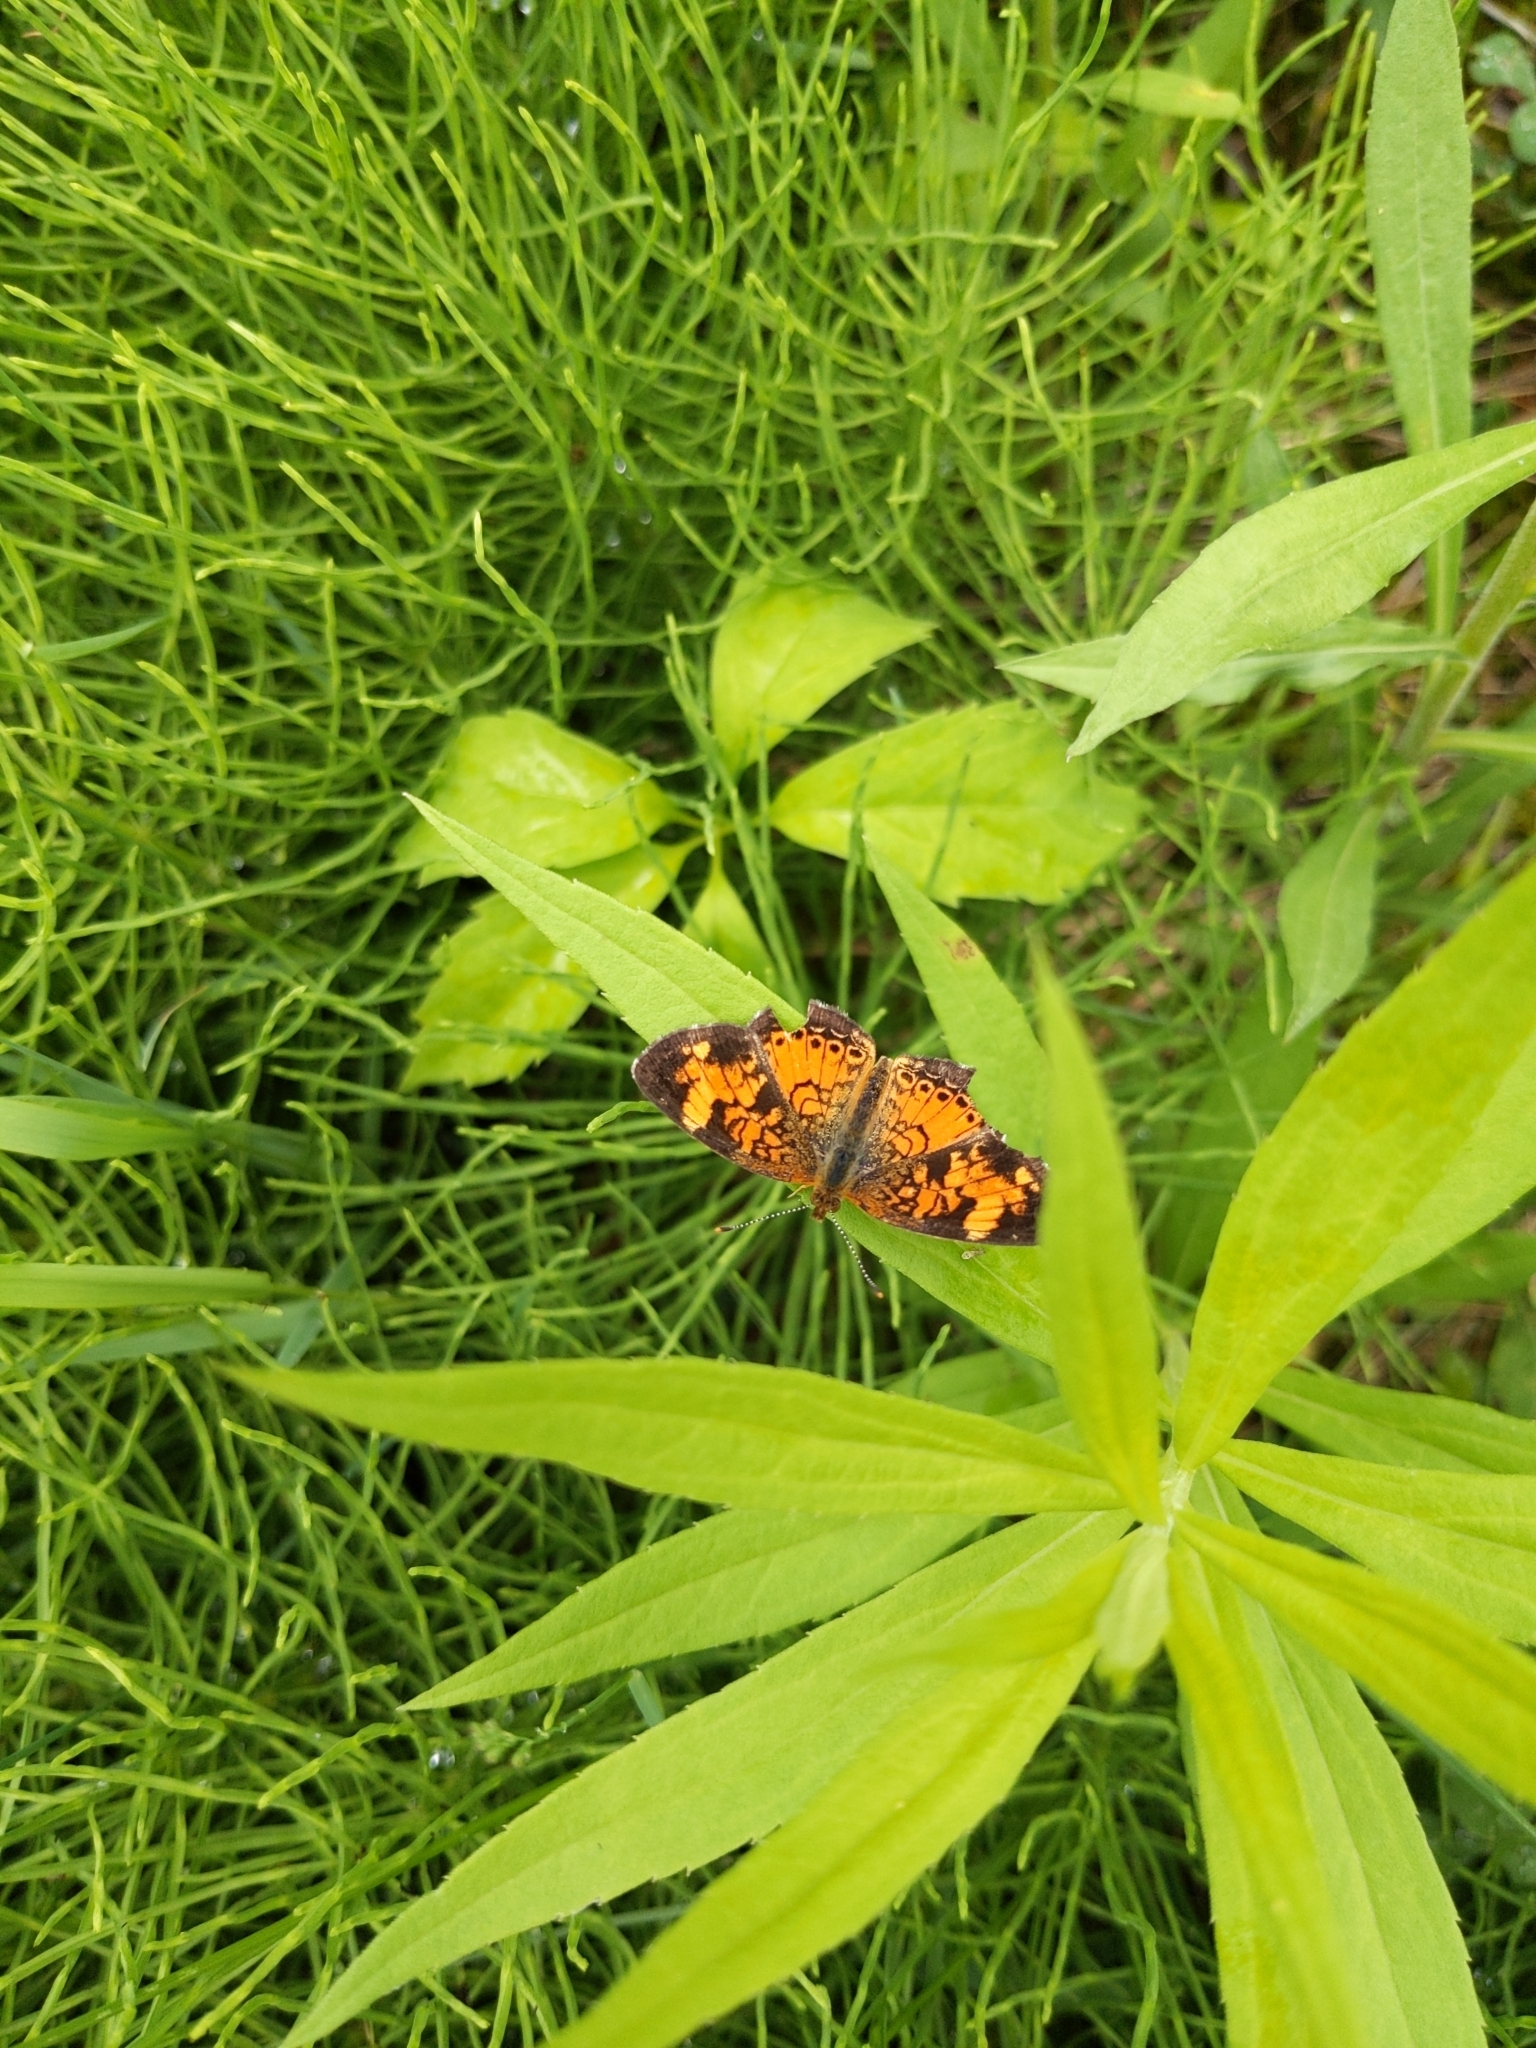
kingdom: Animalia
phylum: Arthropoda
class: Insecta
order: Lepidoptera
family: Nymphalidae
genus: Phyciodes
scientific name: Phyciodes tharos
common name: Pearl crescent
